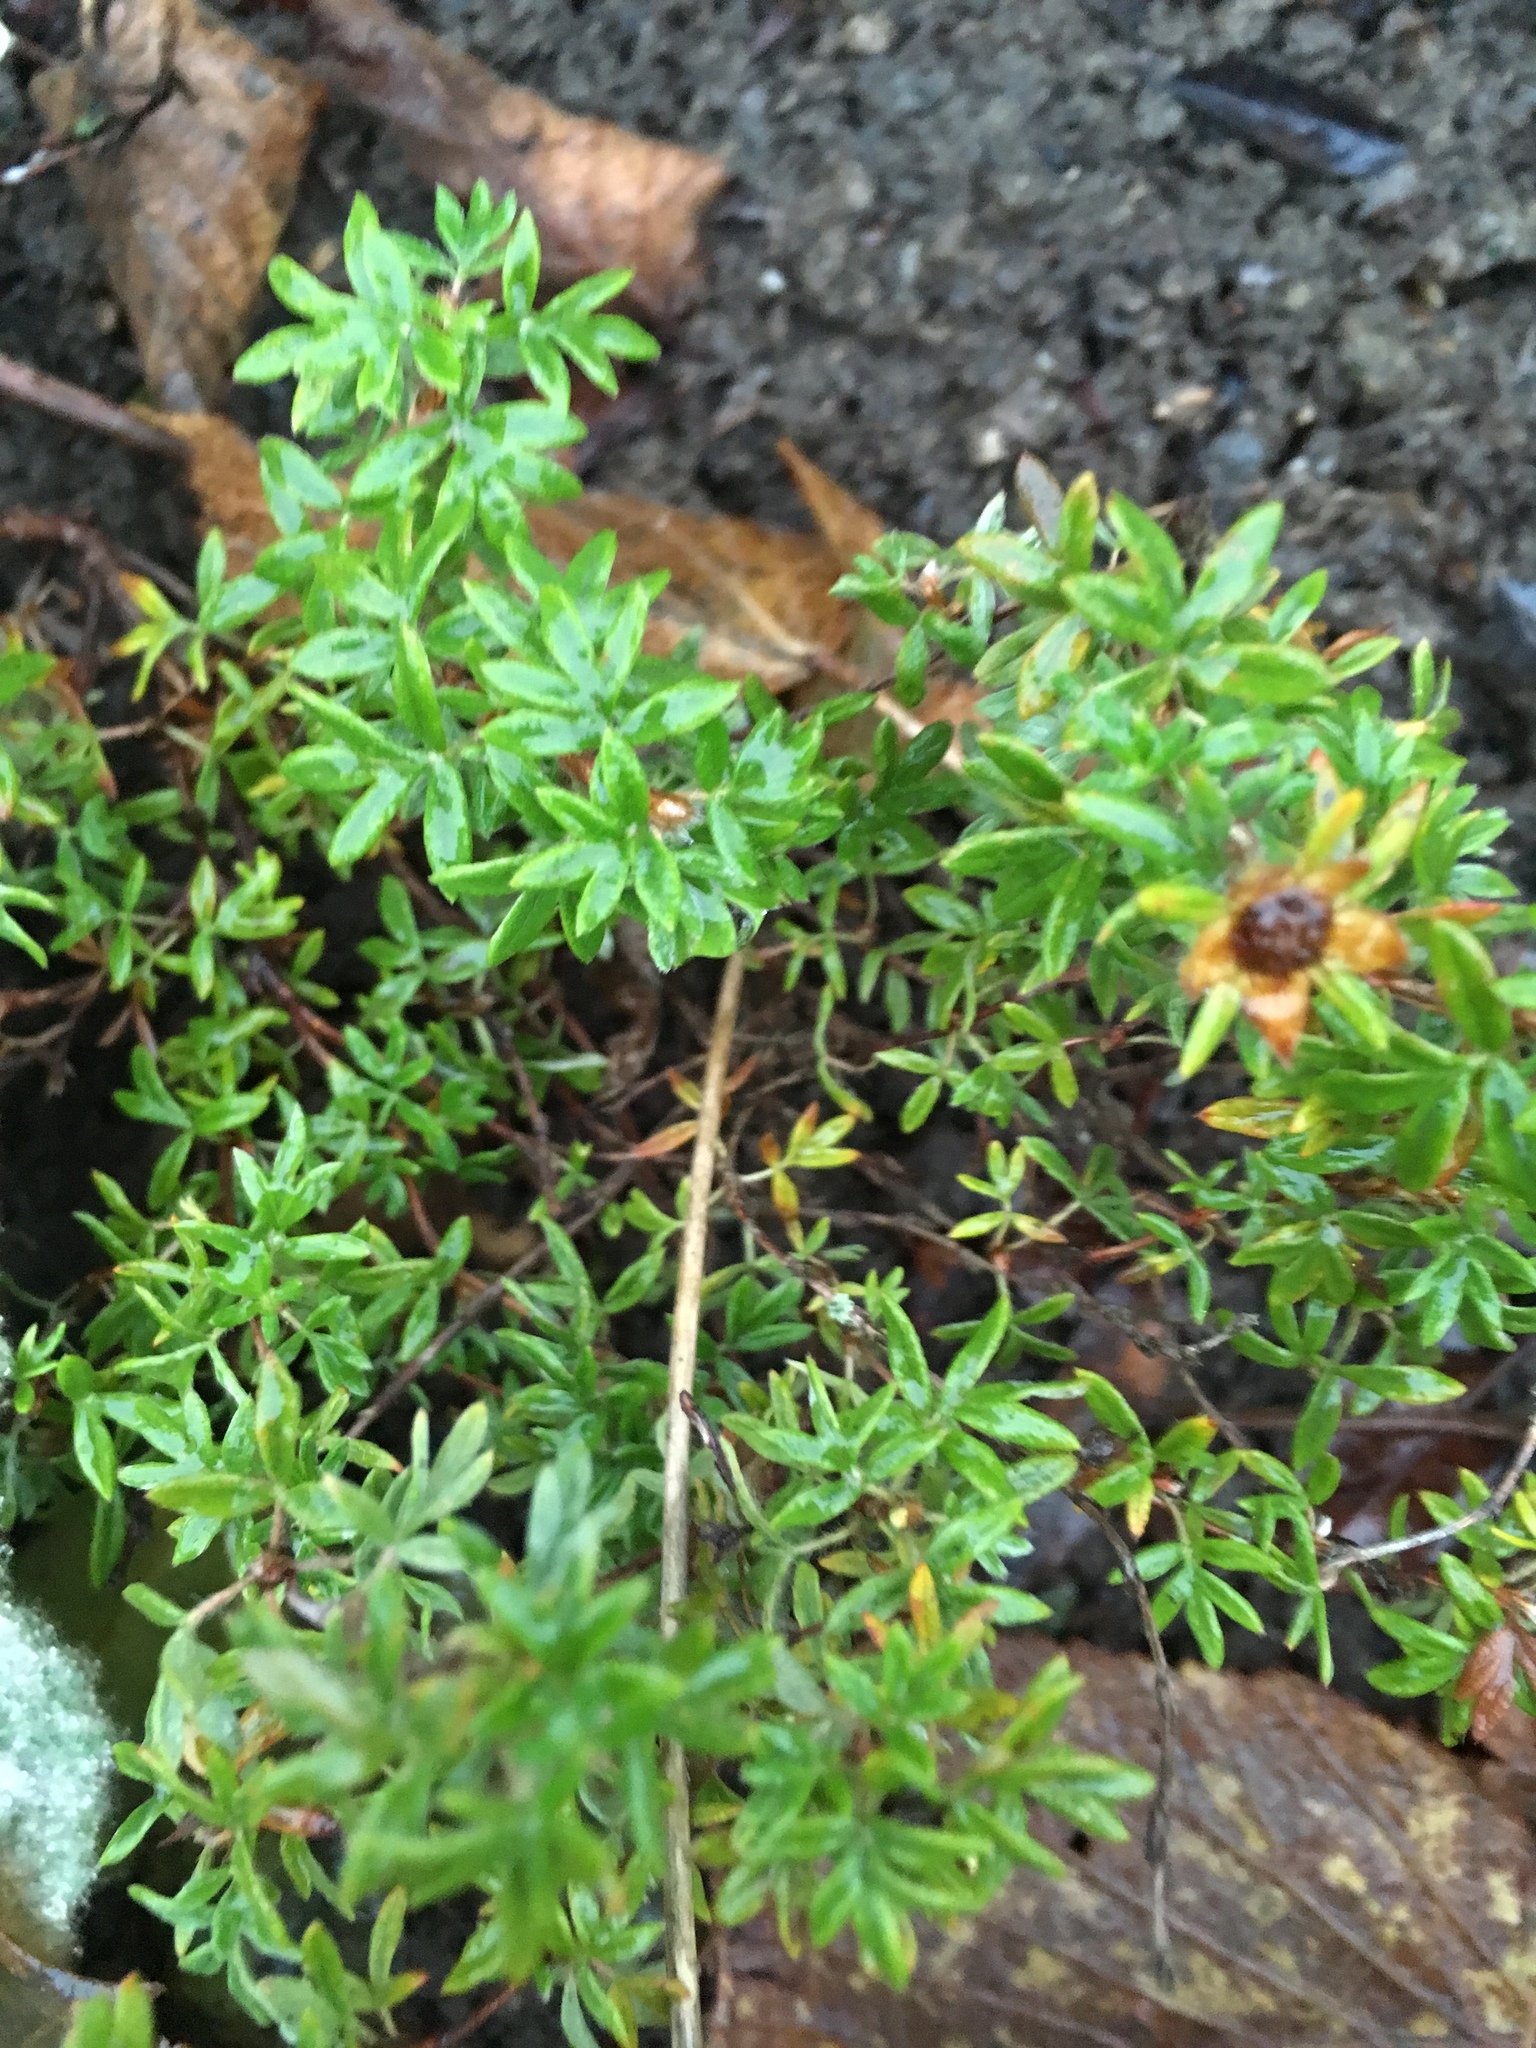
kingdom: Plantae
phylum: Tracheophyta
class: Magnoliopsida
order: Rosales
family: Rosaceae
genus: Dasiphora
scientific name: Dasiphora fruticosa
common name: Shrubby cinquefoil
